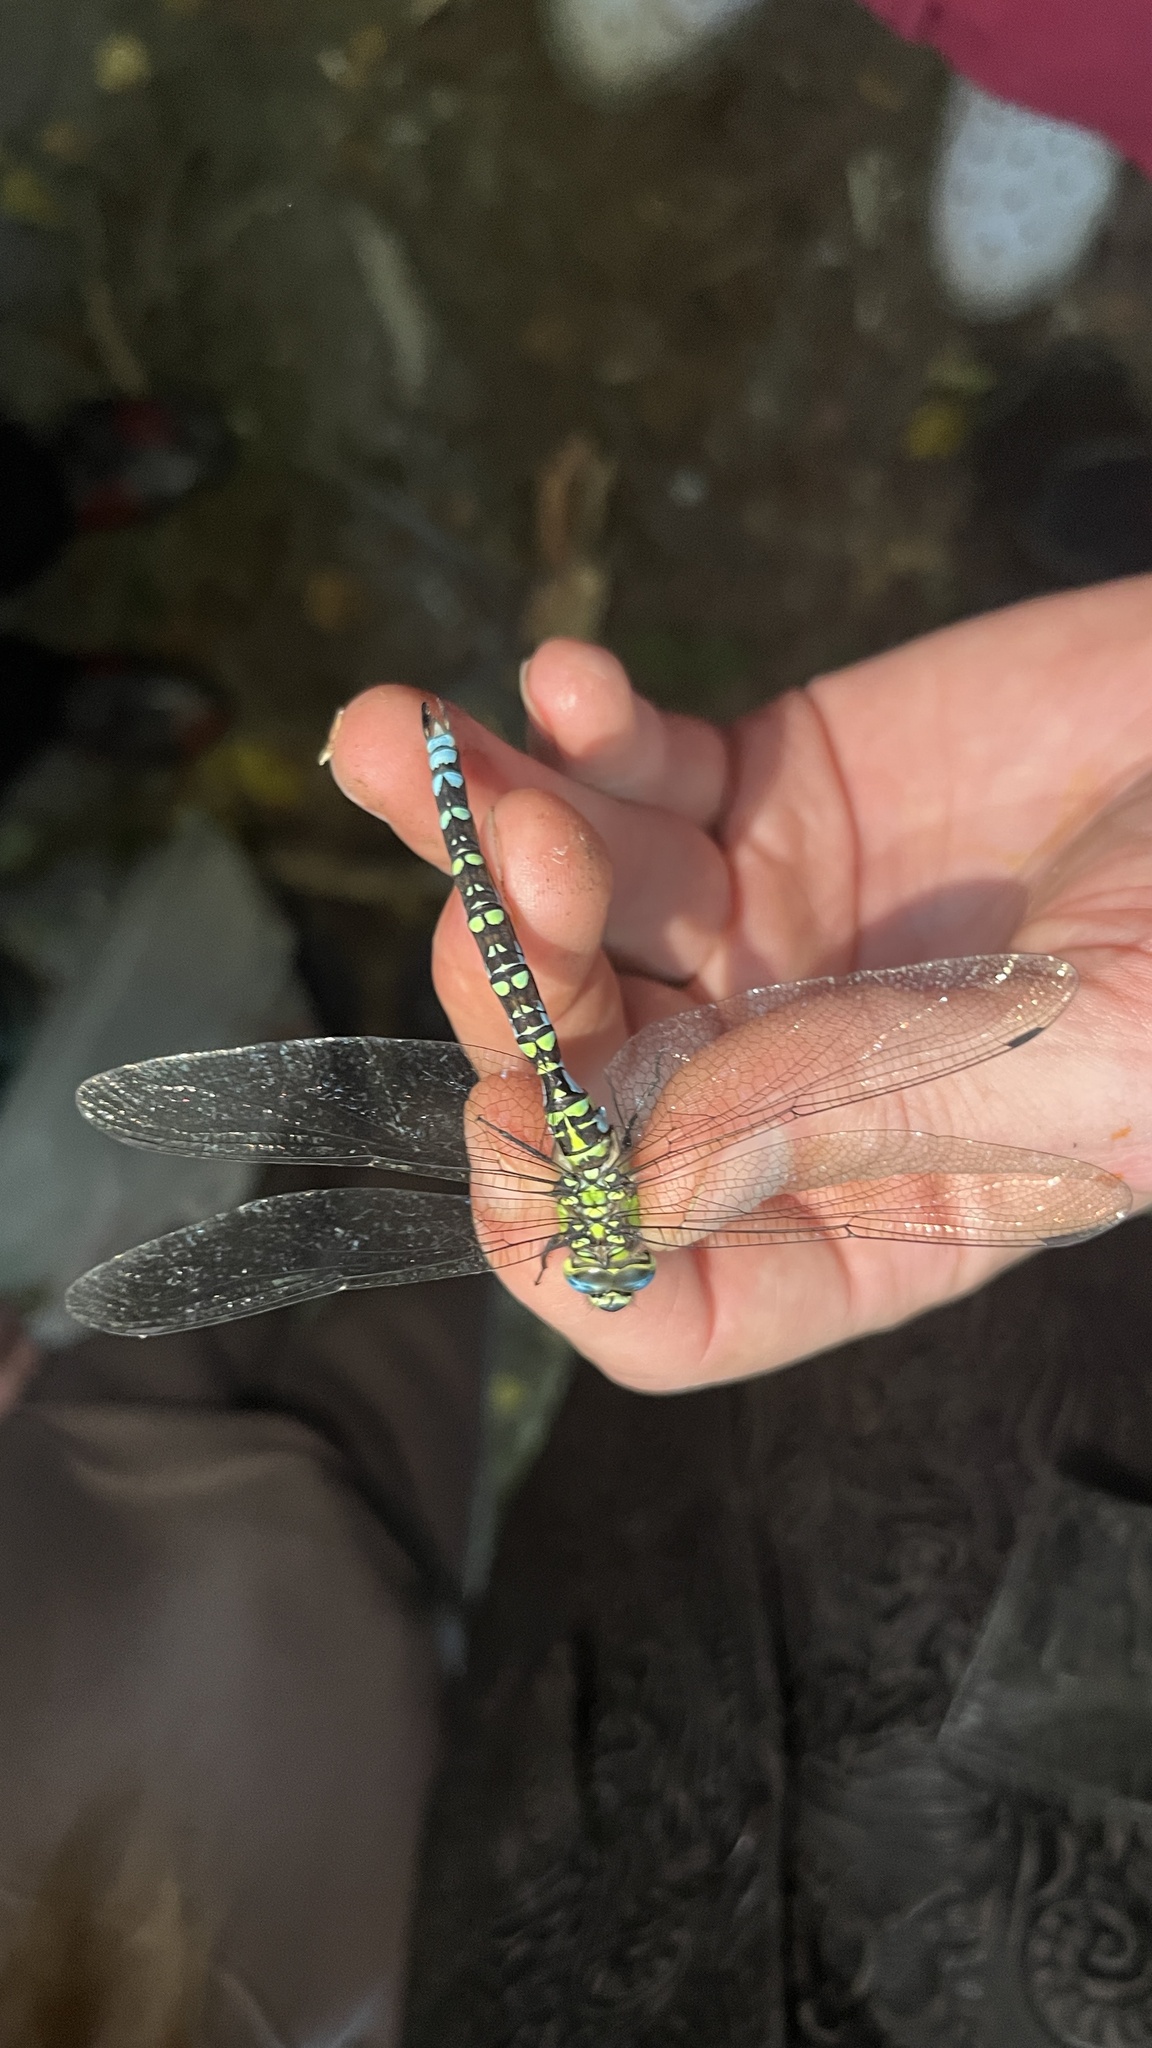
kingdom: Animalia
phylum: Arthropoda
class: Insecta
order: Odonata
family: Aeshnidae
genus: Aeshna
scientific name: Aeshna cyanea
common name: Southern hawker
